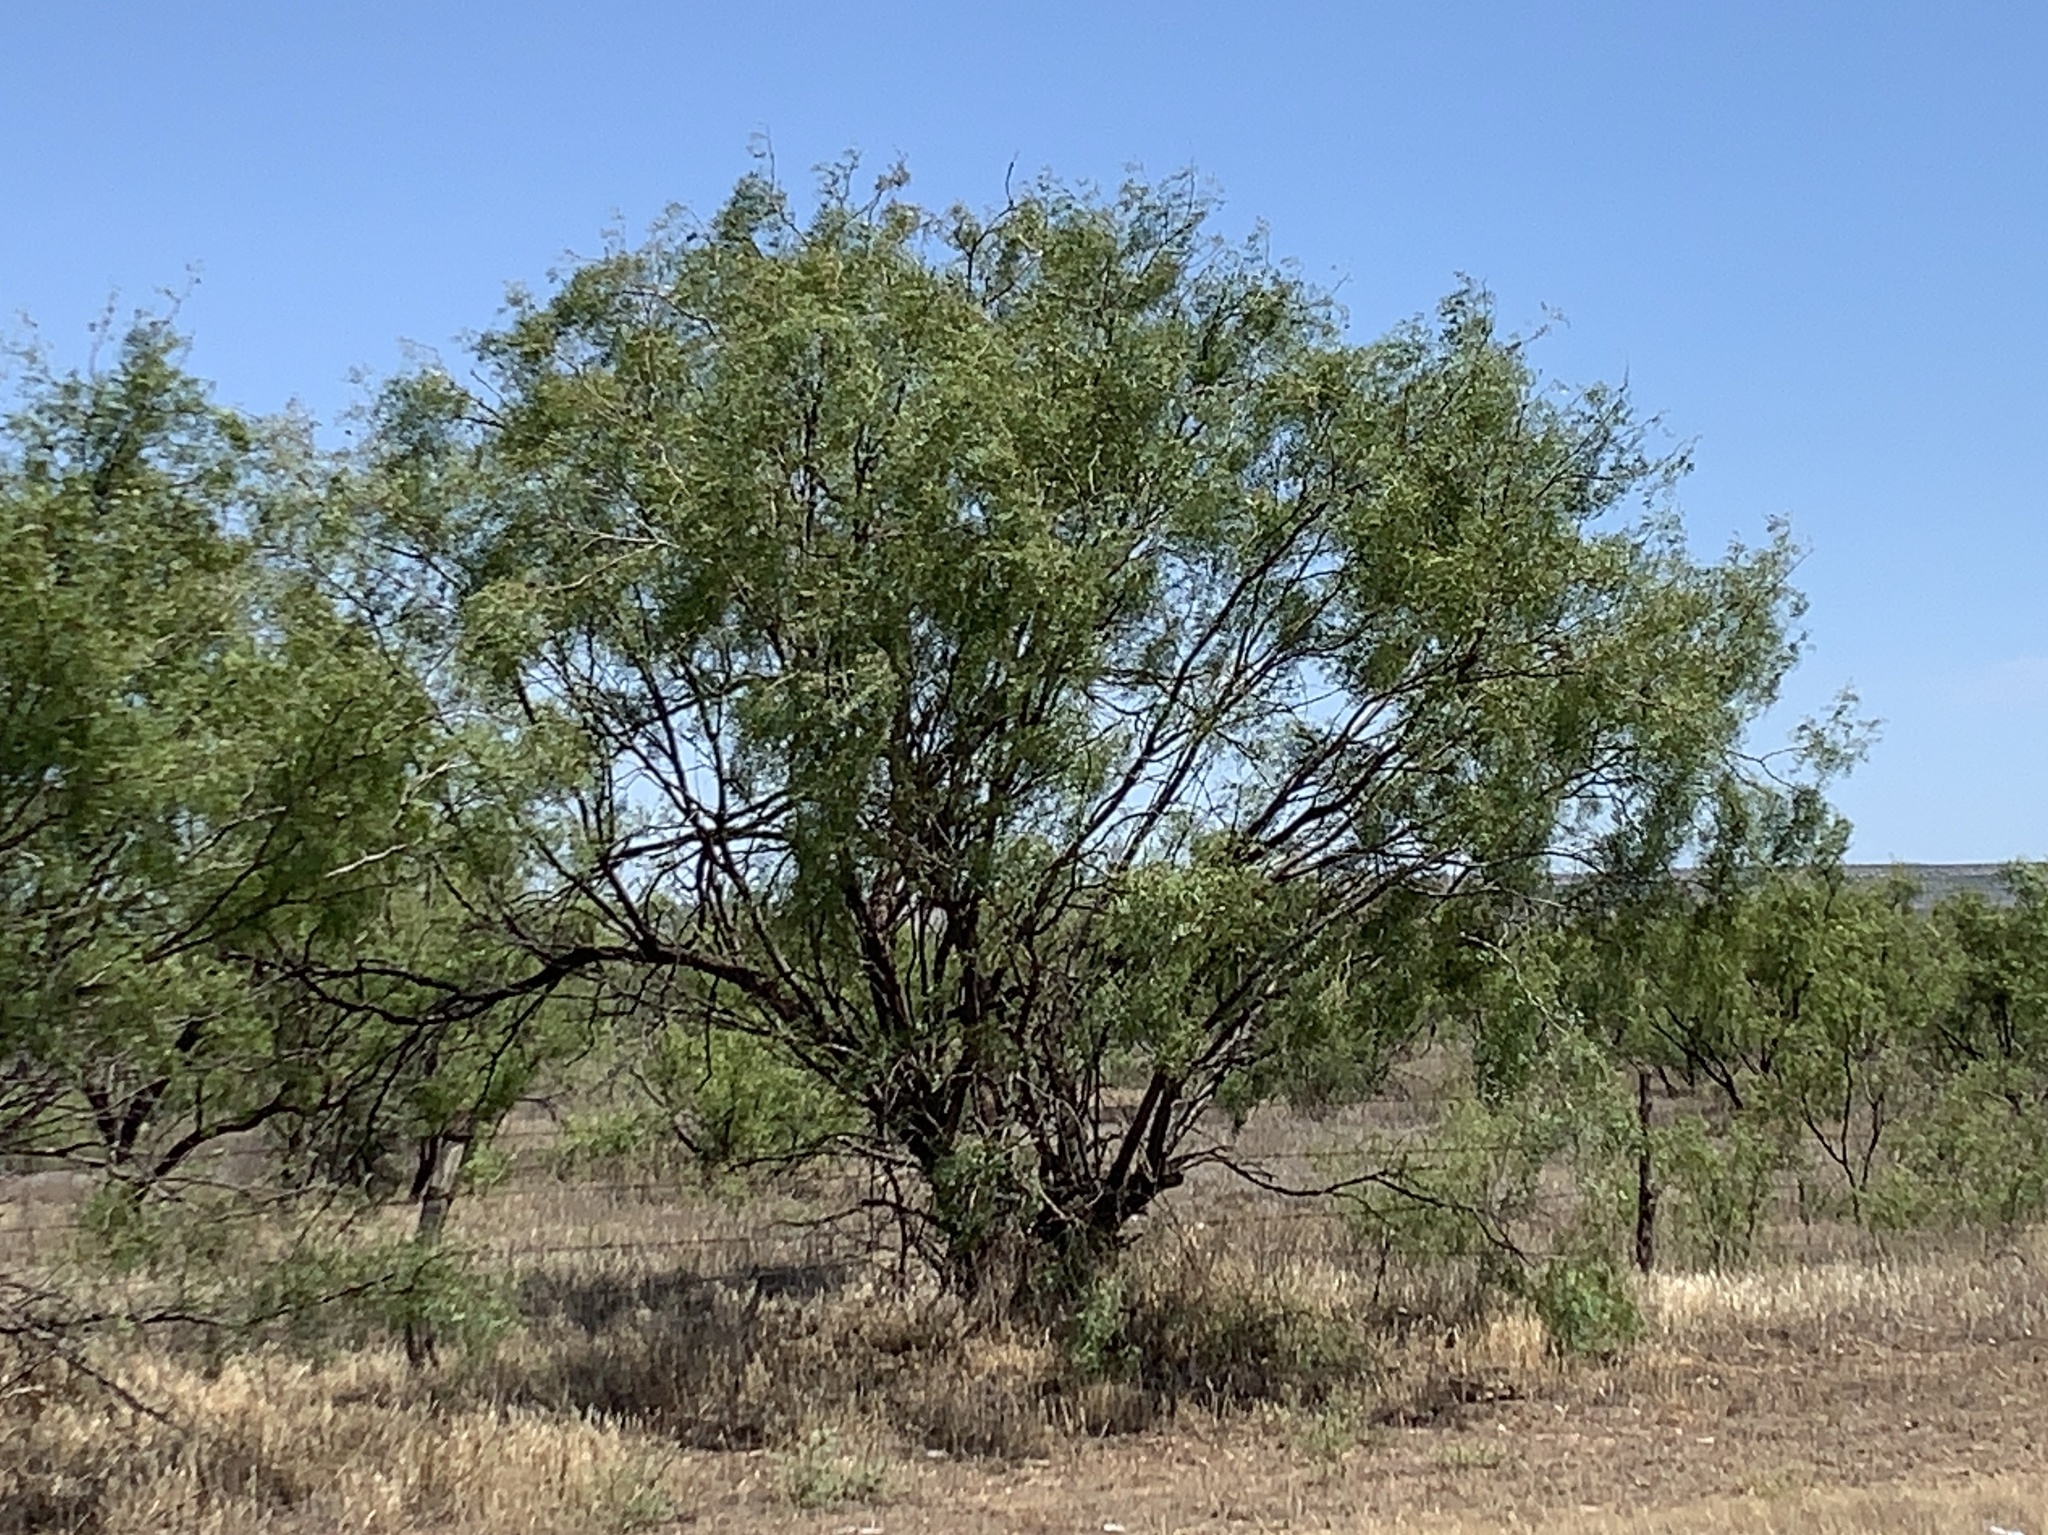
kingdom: Plantae
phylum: Tracheophyta
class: Magnoliopsida
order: Fabales
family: Fabaceae
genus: Prosopis
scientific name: Prosopis glandulosa
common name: Honey mesquite
